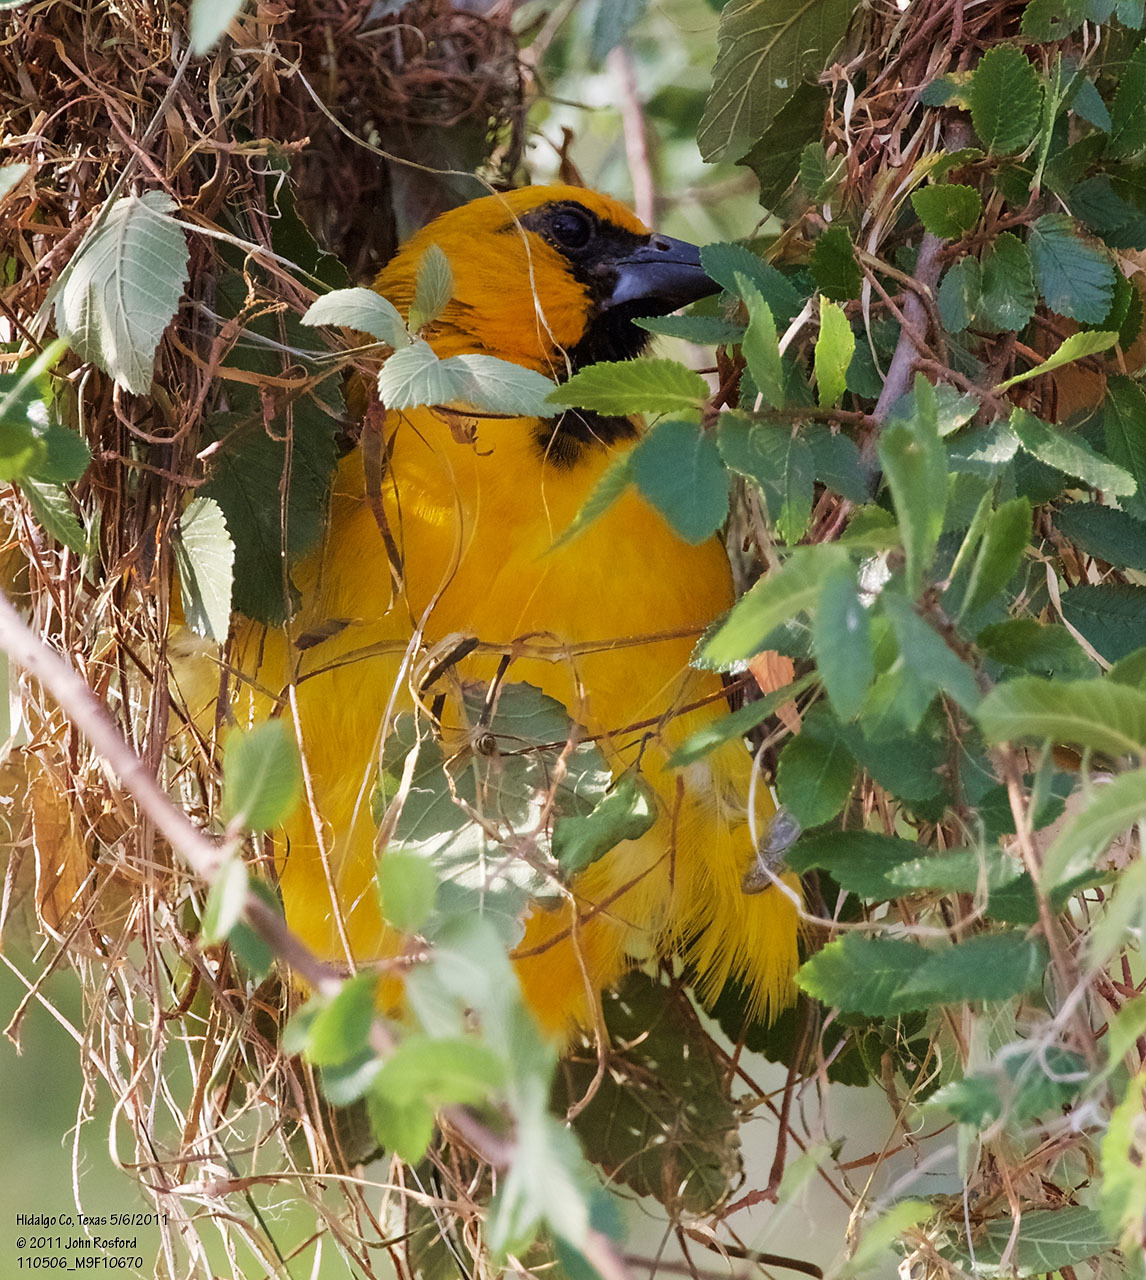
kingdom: Animalia
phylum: Chordata
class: Aves
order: Passeriformes
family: Icteridae
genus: Icterus
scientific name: Icterus gularis
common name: Altamira oriole
